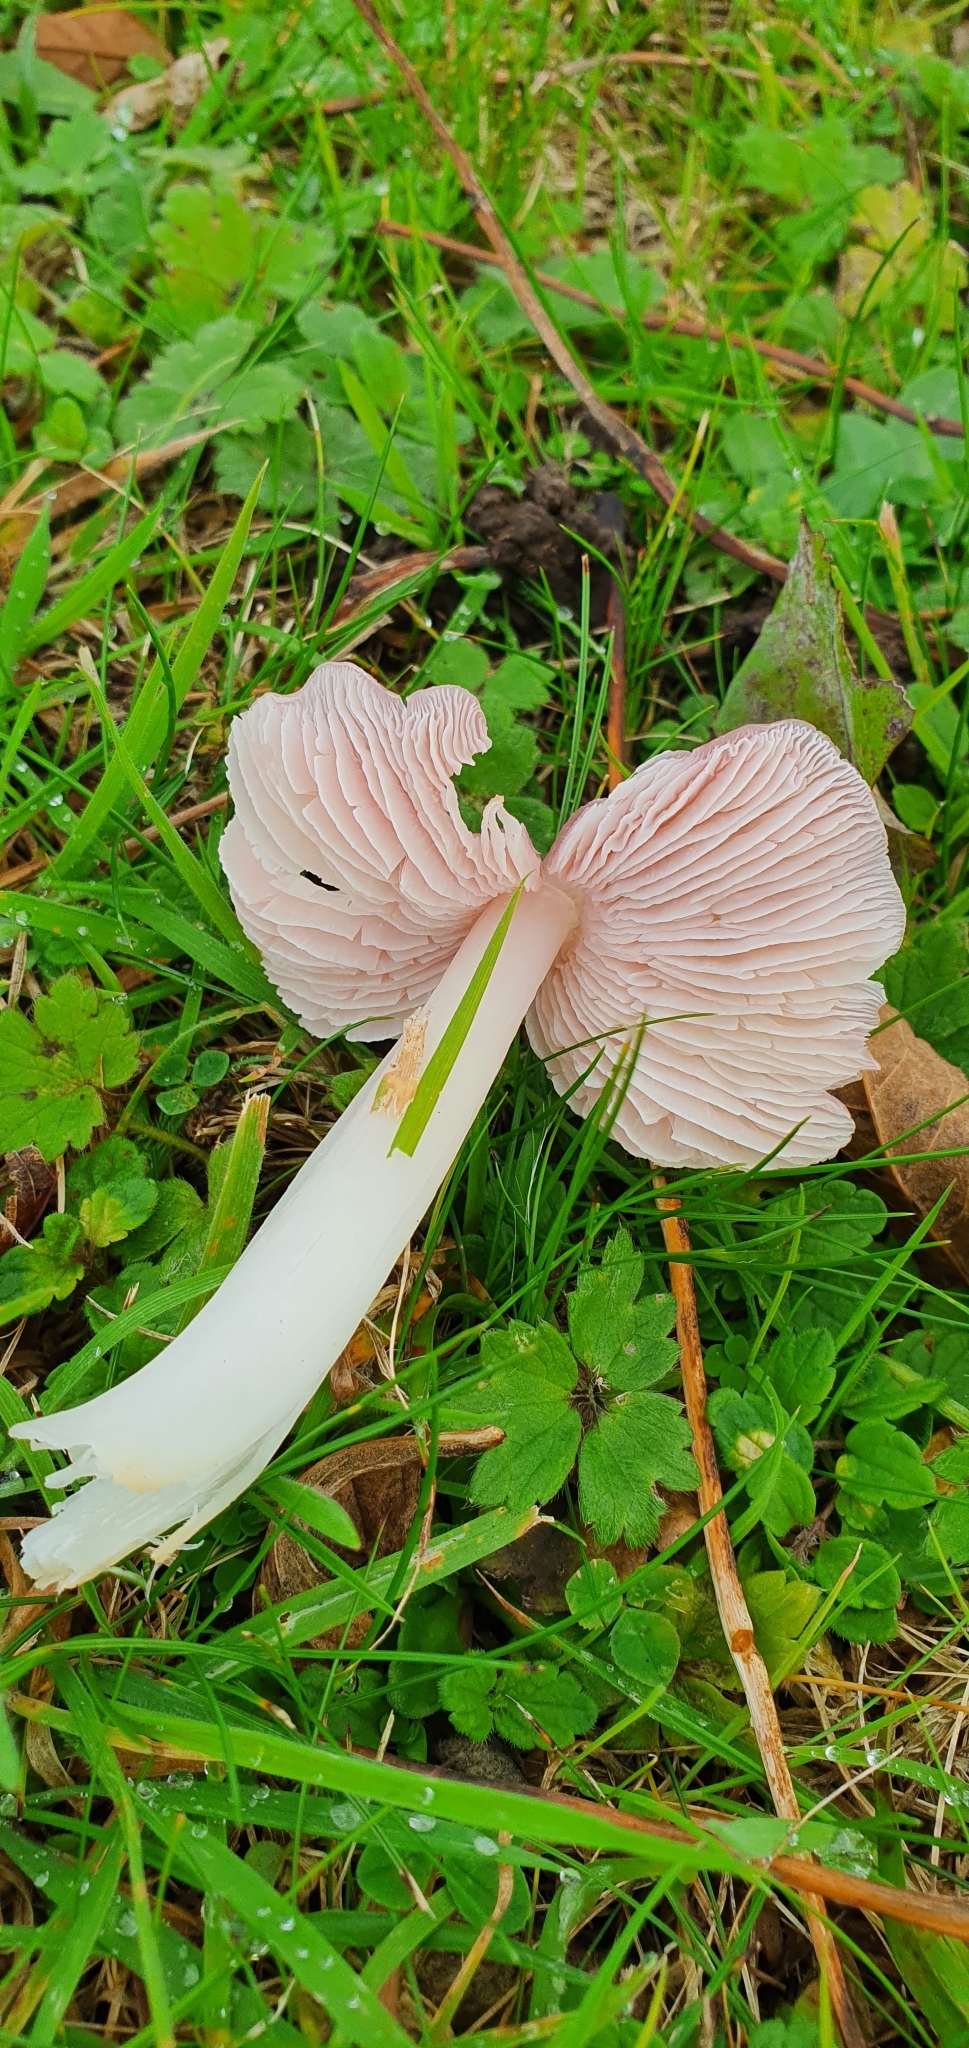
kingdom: Fungi
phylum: Basidiomycota
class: Agaricomycetes
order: Agaricales
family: Hygrophoraceae
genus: Porpolomopsis
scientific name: Porpolomopsis calyptriformis
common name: Pink waxcap
